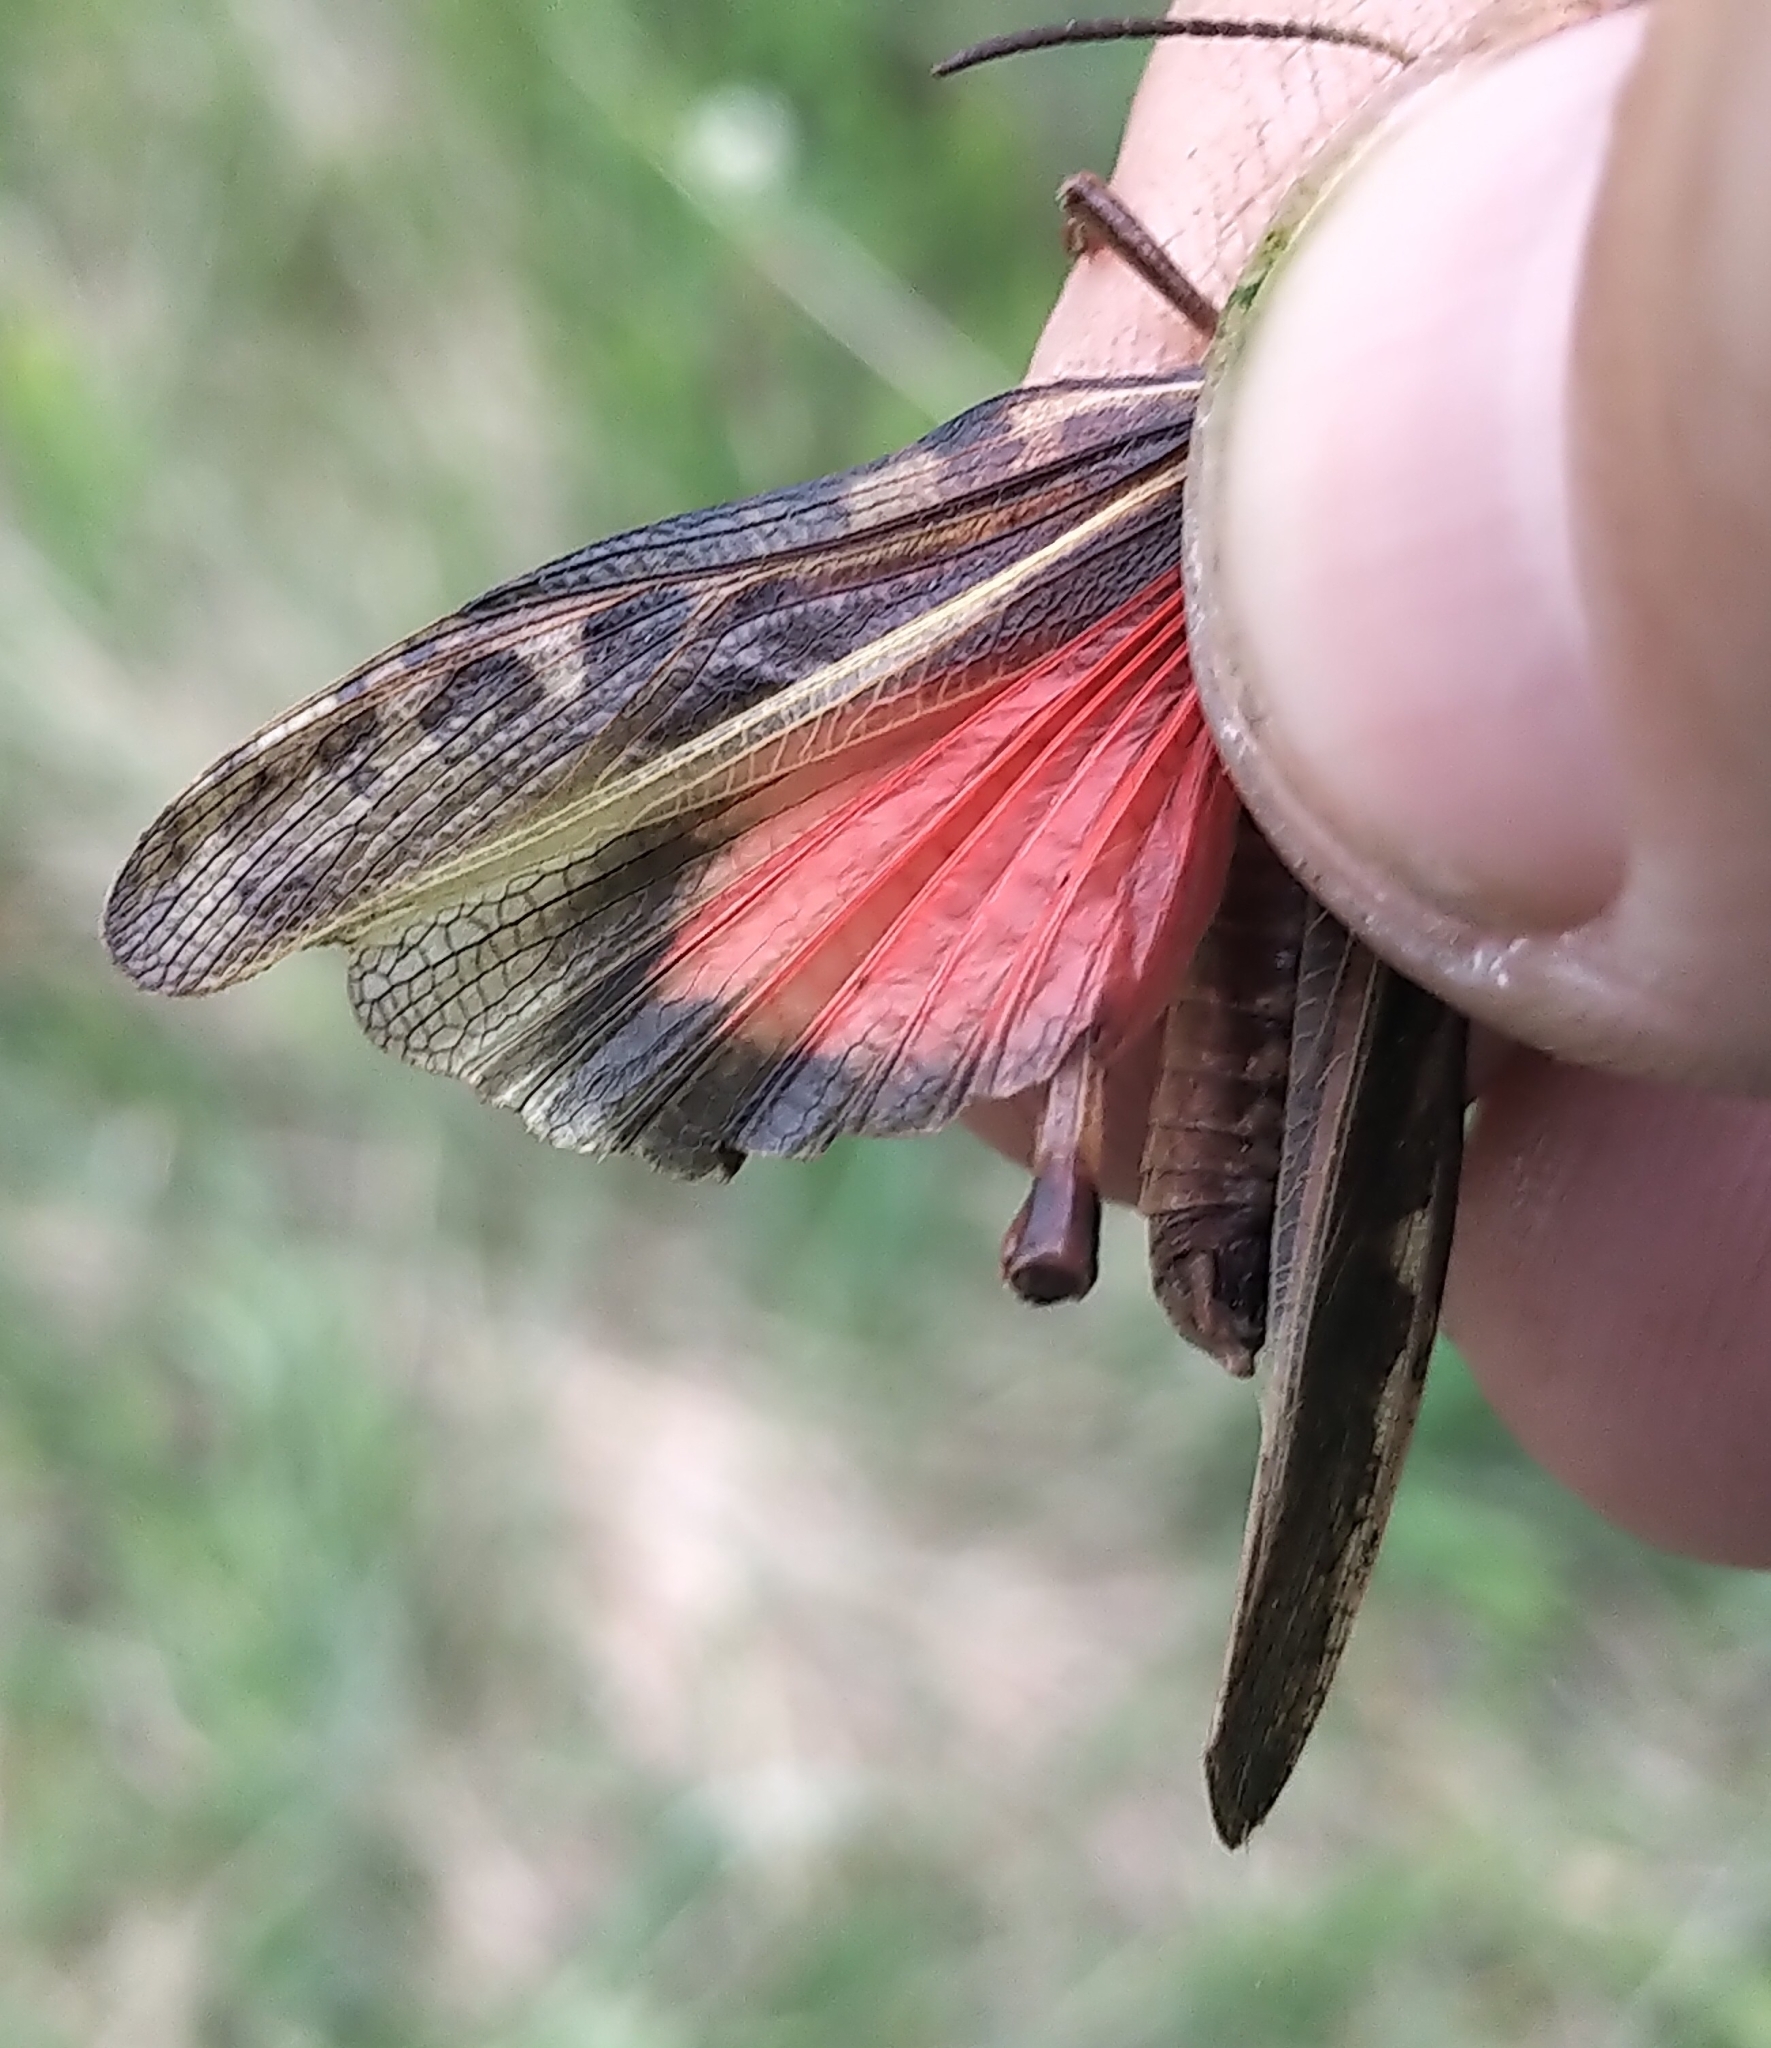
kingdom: Animalia
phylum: Arthropoda
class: Insecta
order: Orthoptera
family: Acrididae
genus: Pardalophora
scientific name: Pardalophora apiculata
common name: Coral-winged locust
